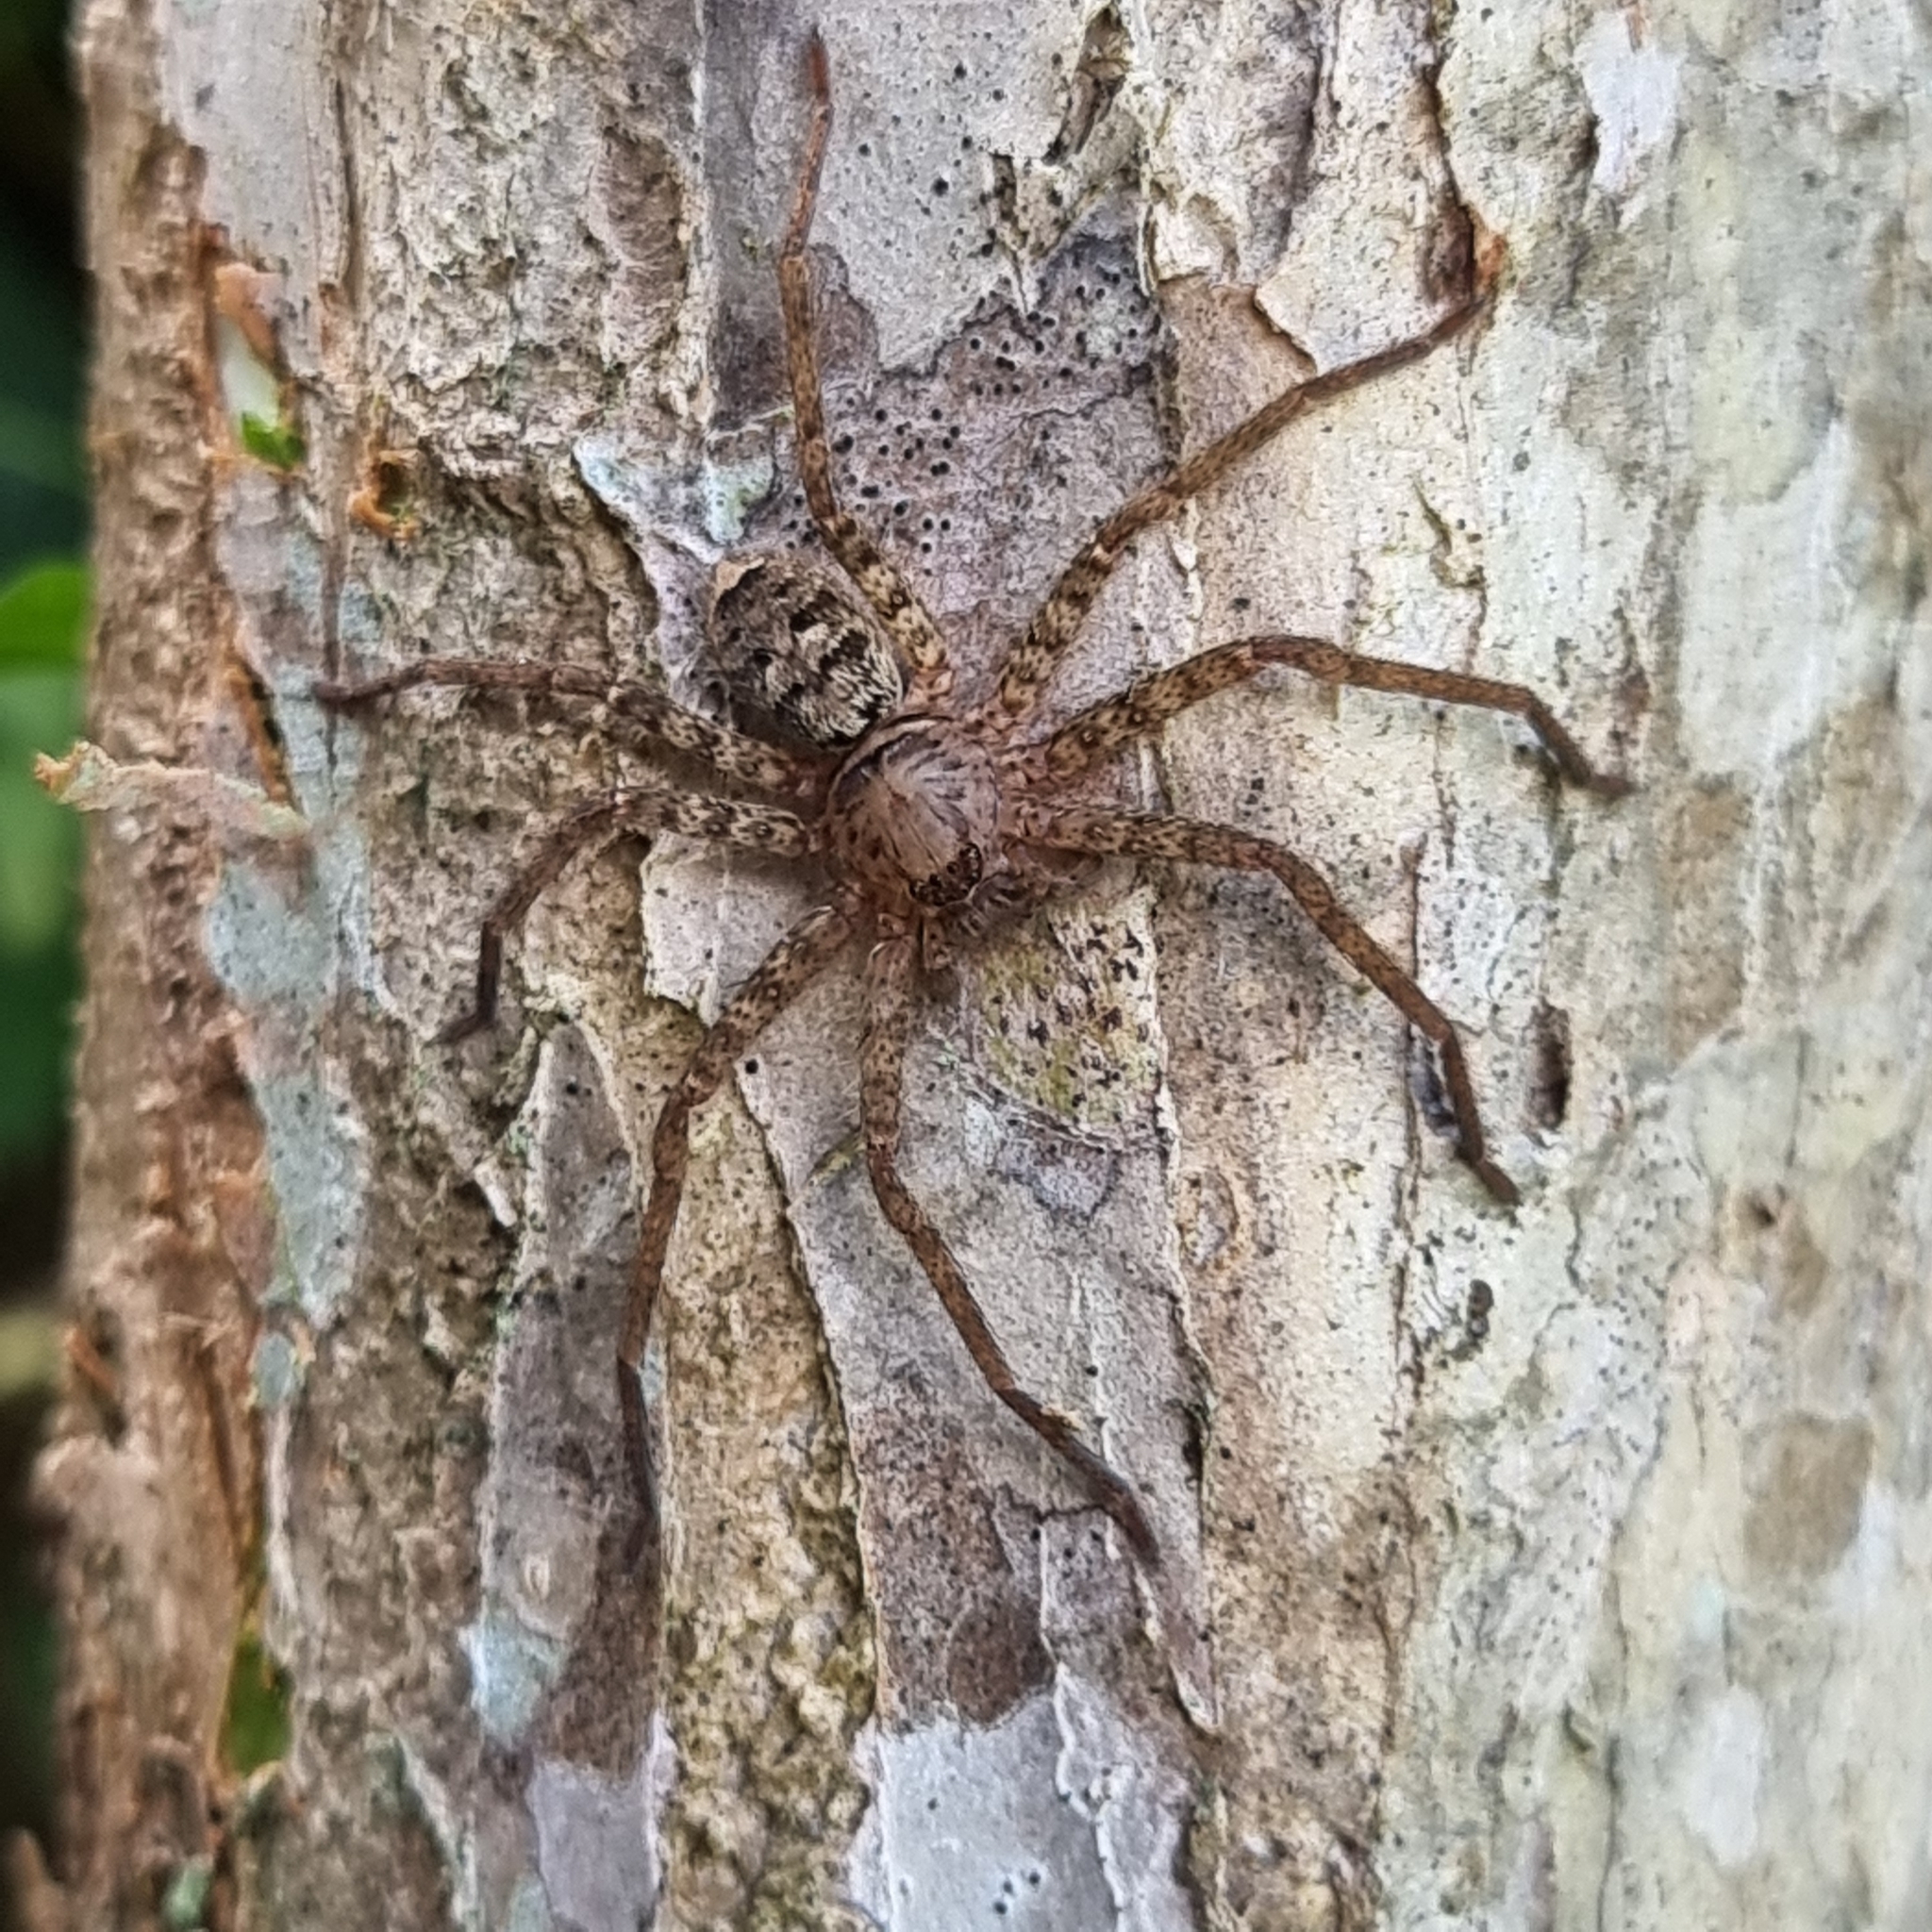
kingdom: Animalia
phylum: Arthropoda
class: Arachnida
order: Araneae
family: Sparassidae
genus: Heteropoda
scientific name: Heteropoda jugulans
